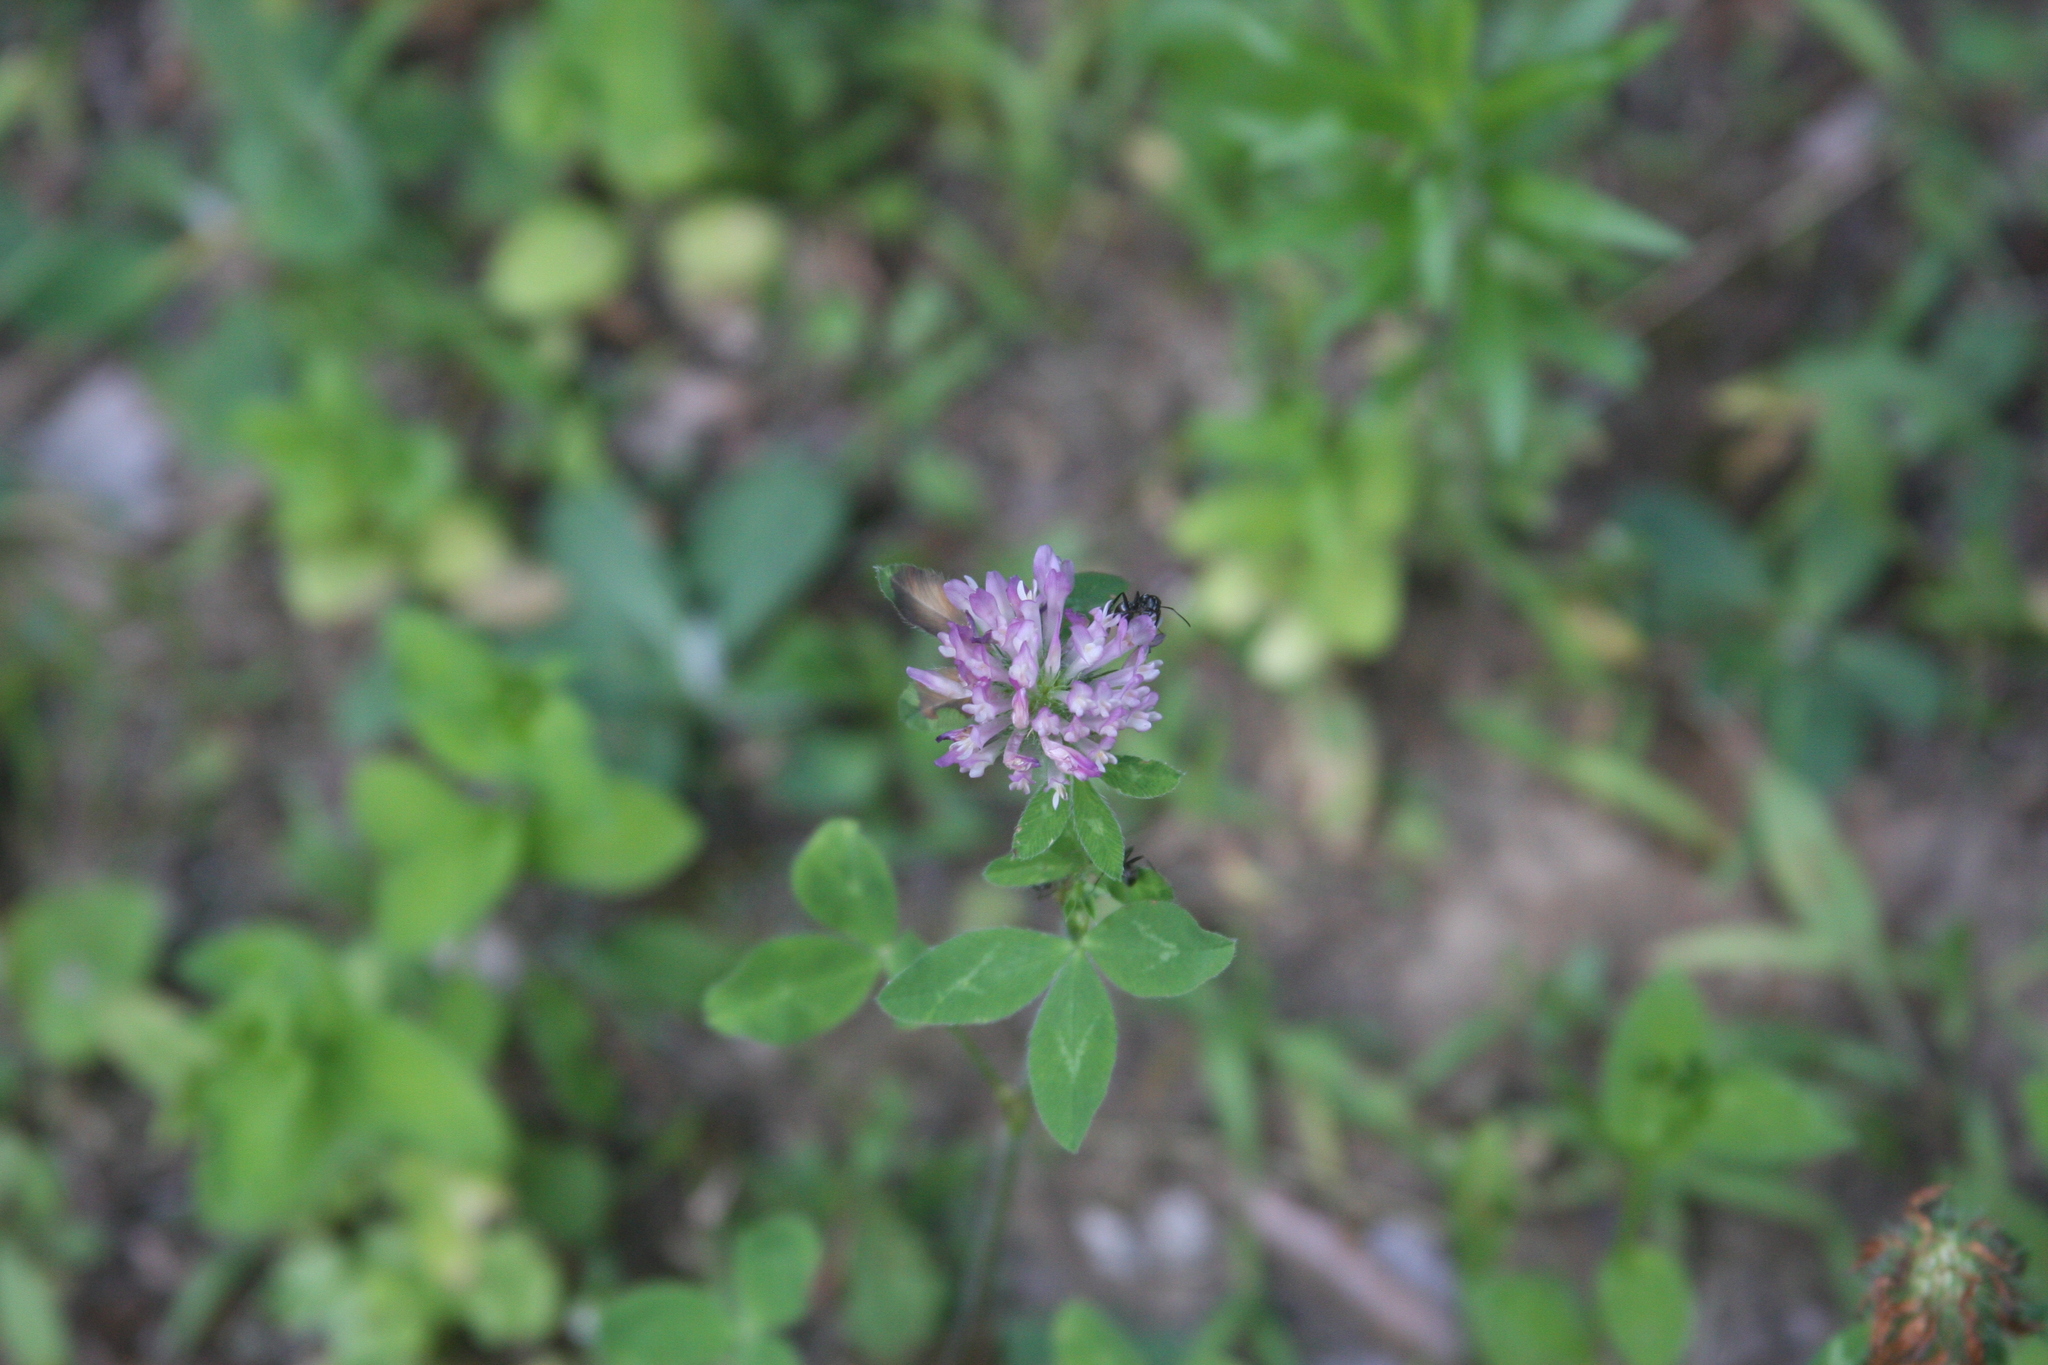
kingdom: Plantae
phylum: Tracheophyta
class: Magnoliopsida
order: Fabales
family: Fabaceae
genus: Trifolium
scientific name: Trifolium pratense
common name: Red clover
